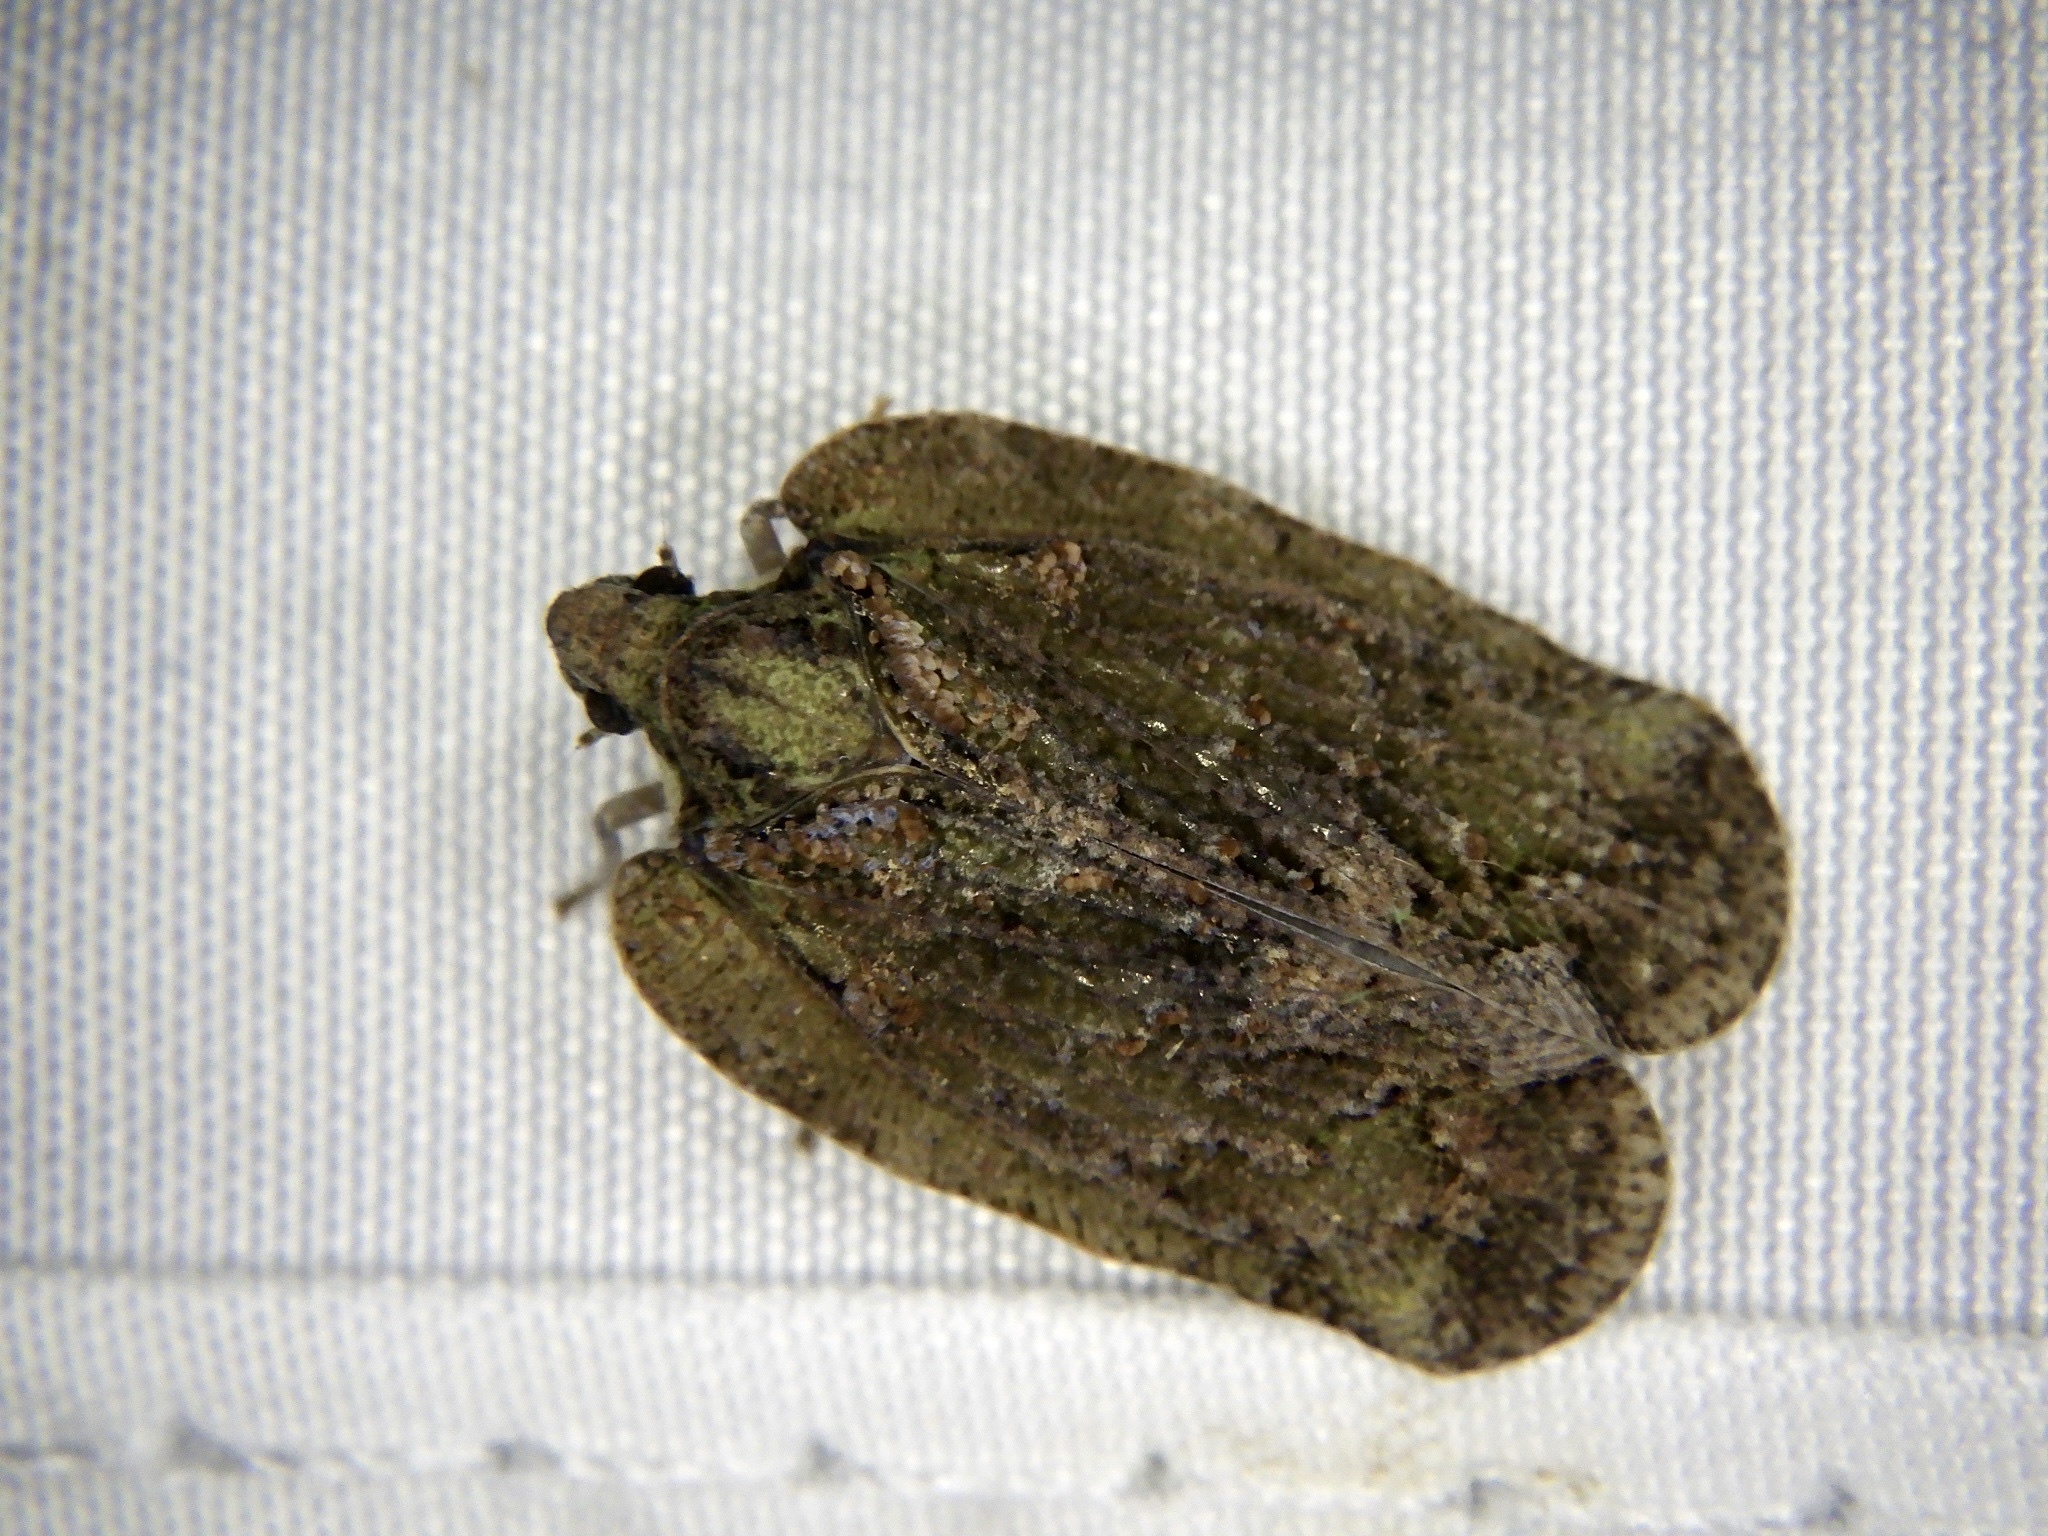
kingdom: Animalia
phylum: Arthropoda
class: Insecta
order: Hemiptera
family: Flatidae
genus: Atracis
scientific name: Atracis mucida
